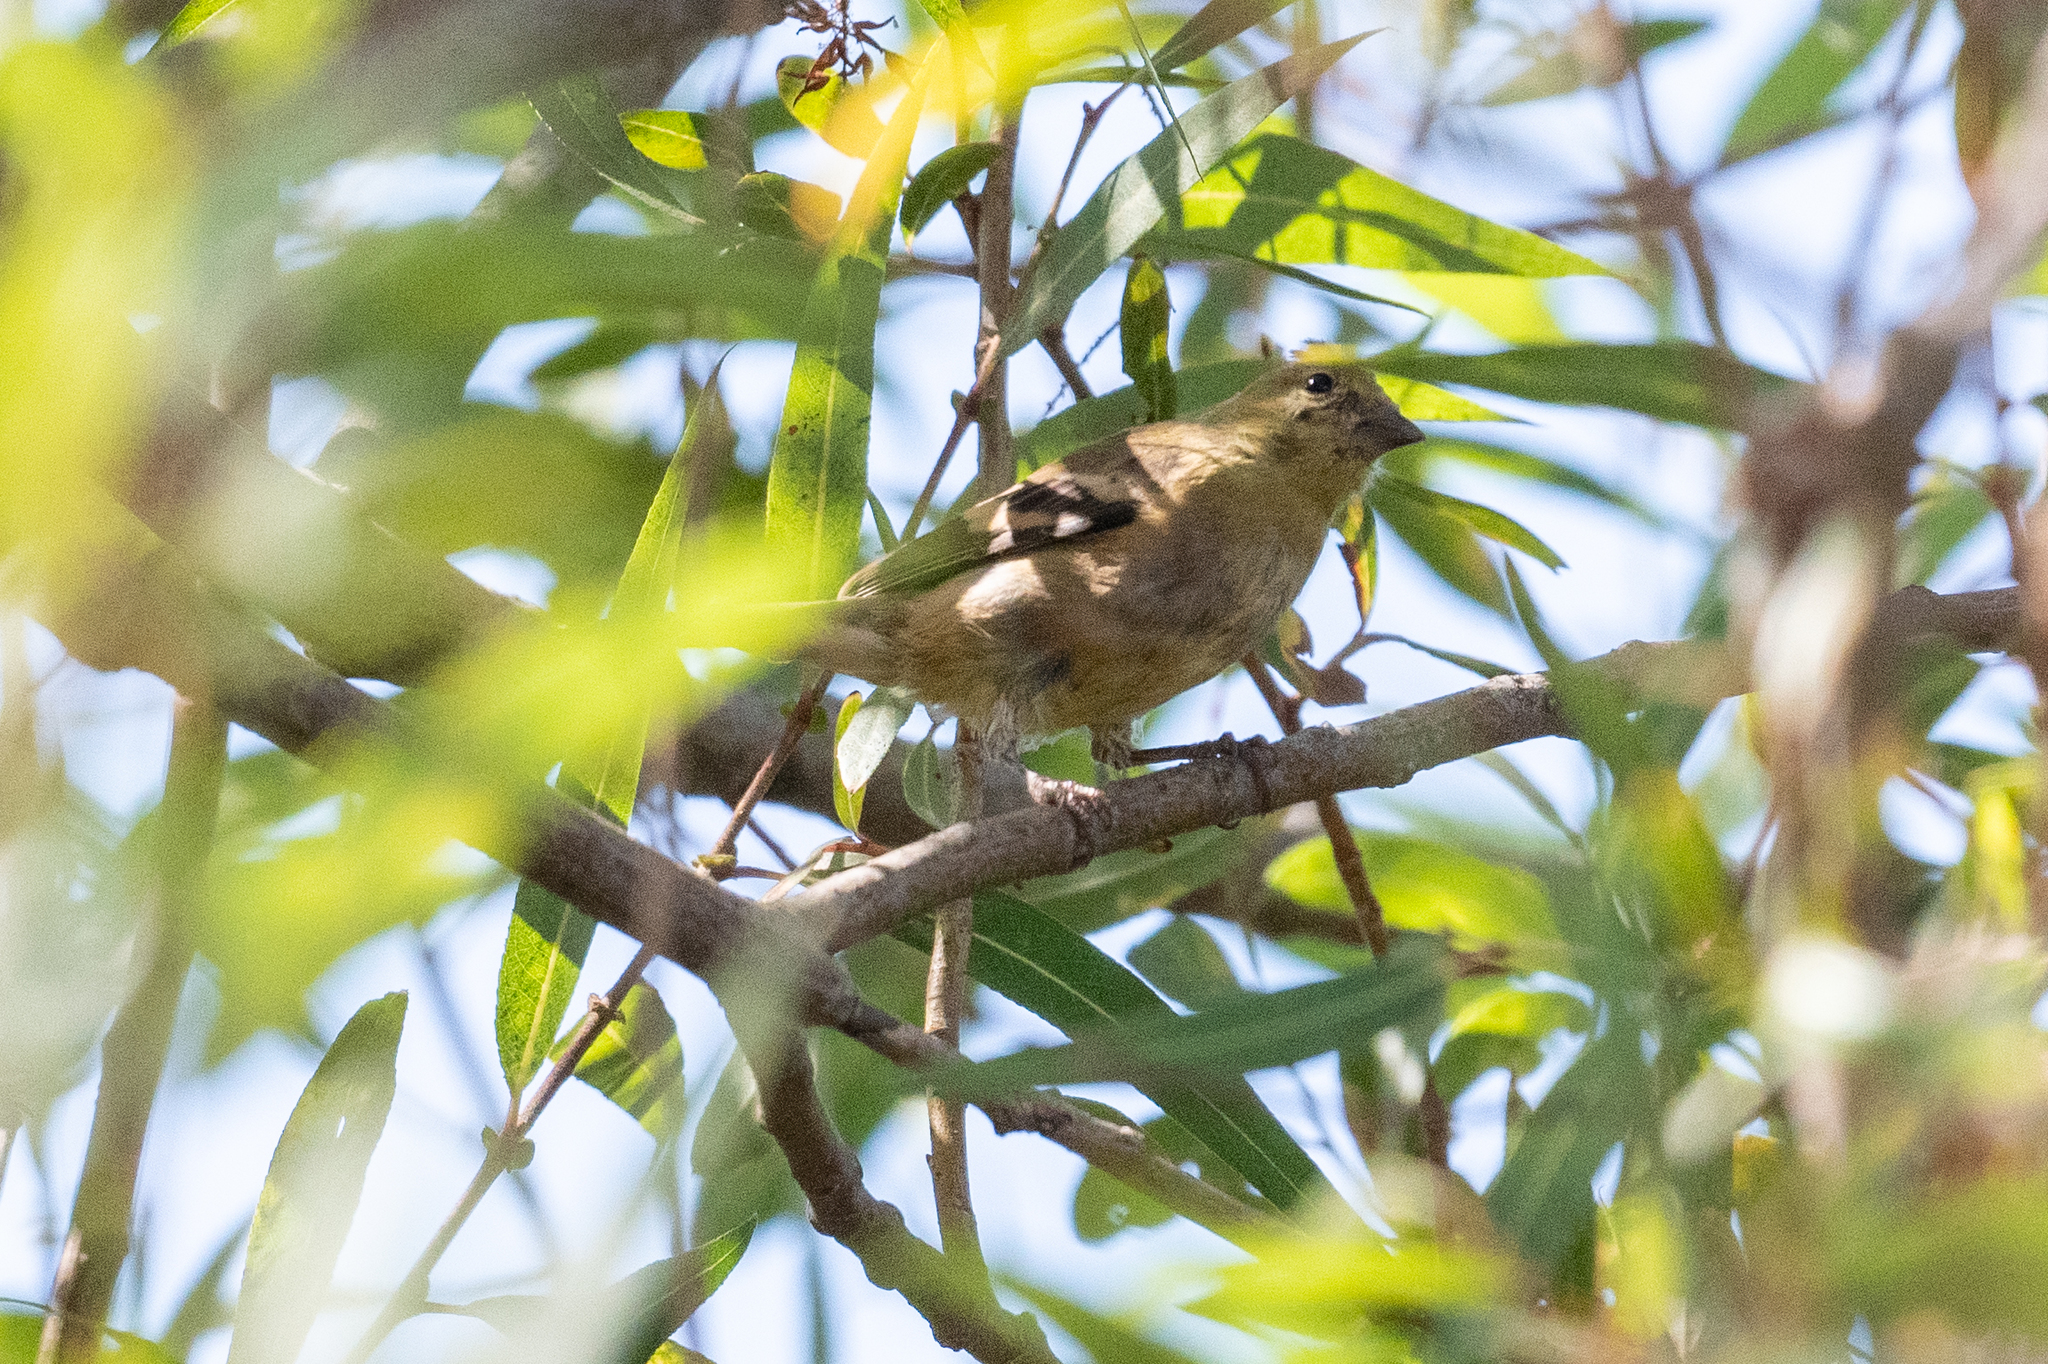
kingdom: Animalia
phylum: Chordata
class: Aves
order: Passeriformes
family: Fringillidae
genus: Spinus
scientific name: Spinus tristis
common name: American goldfinch
